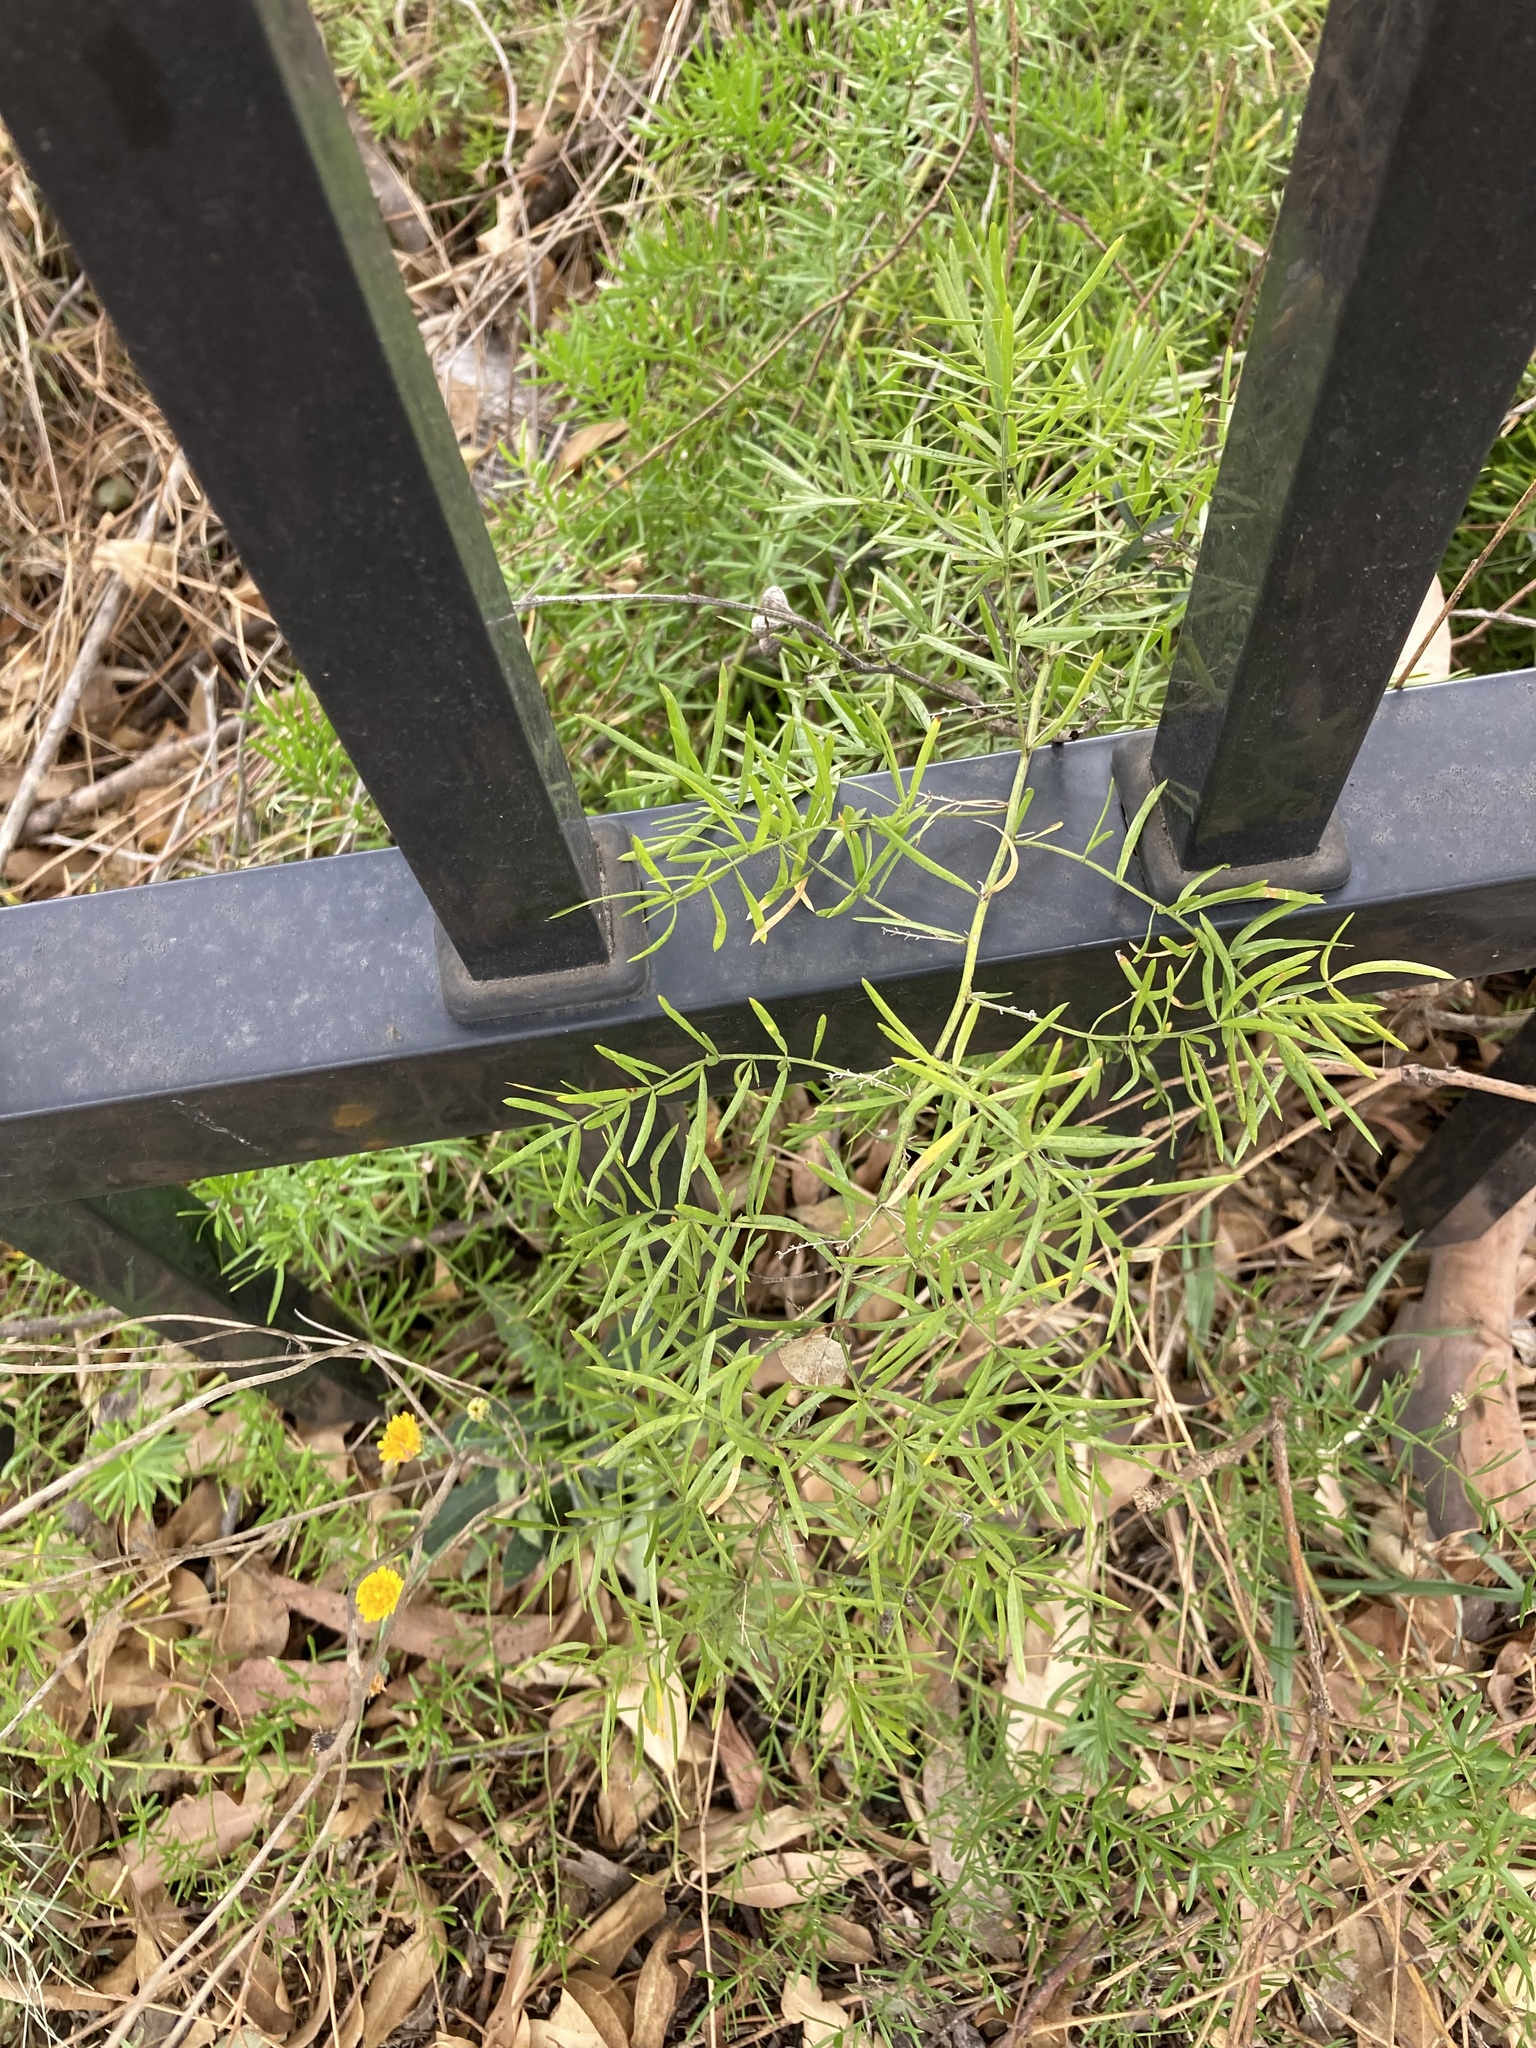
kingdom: Plantae
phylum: Tracheophyta
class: Liliopsida
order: Asparagales
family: Asparagaceae
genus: Asparagus
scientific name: Asparagus aethiopicus
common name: Sprenger's asparagus fern
